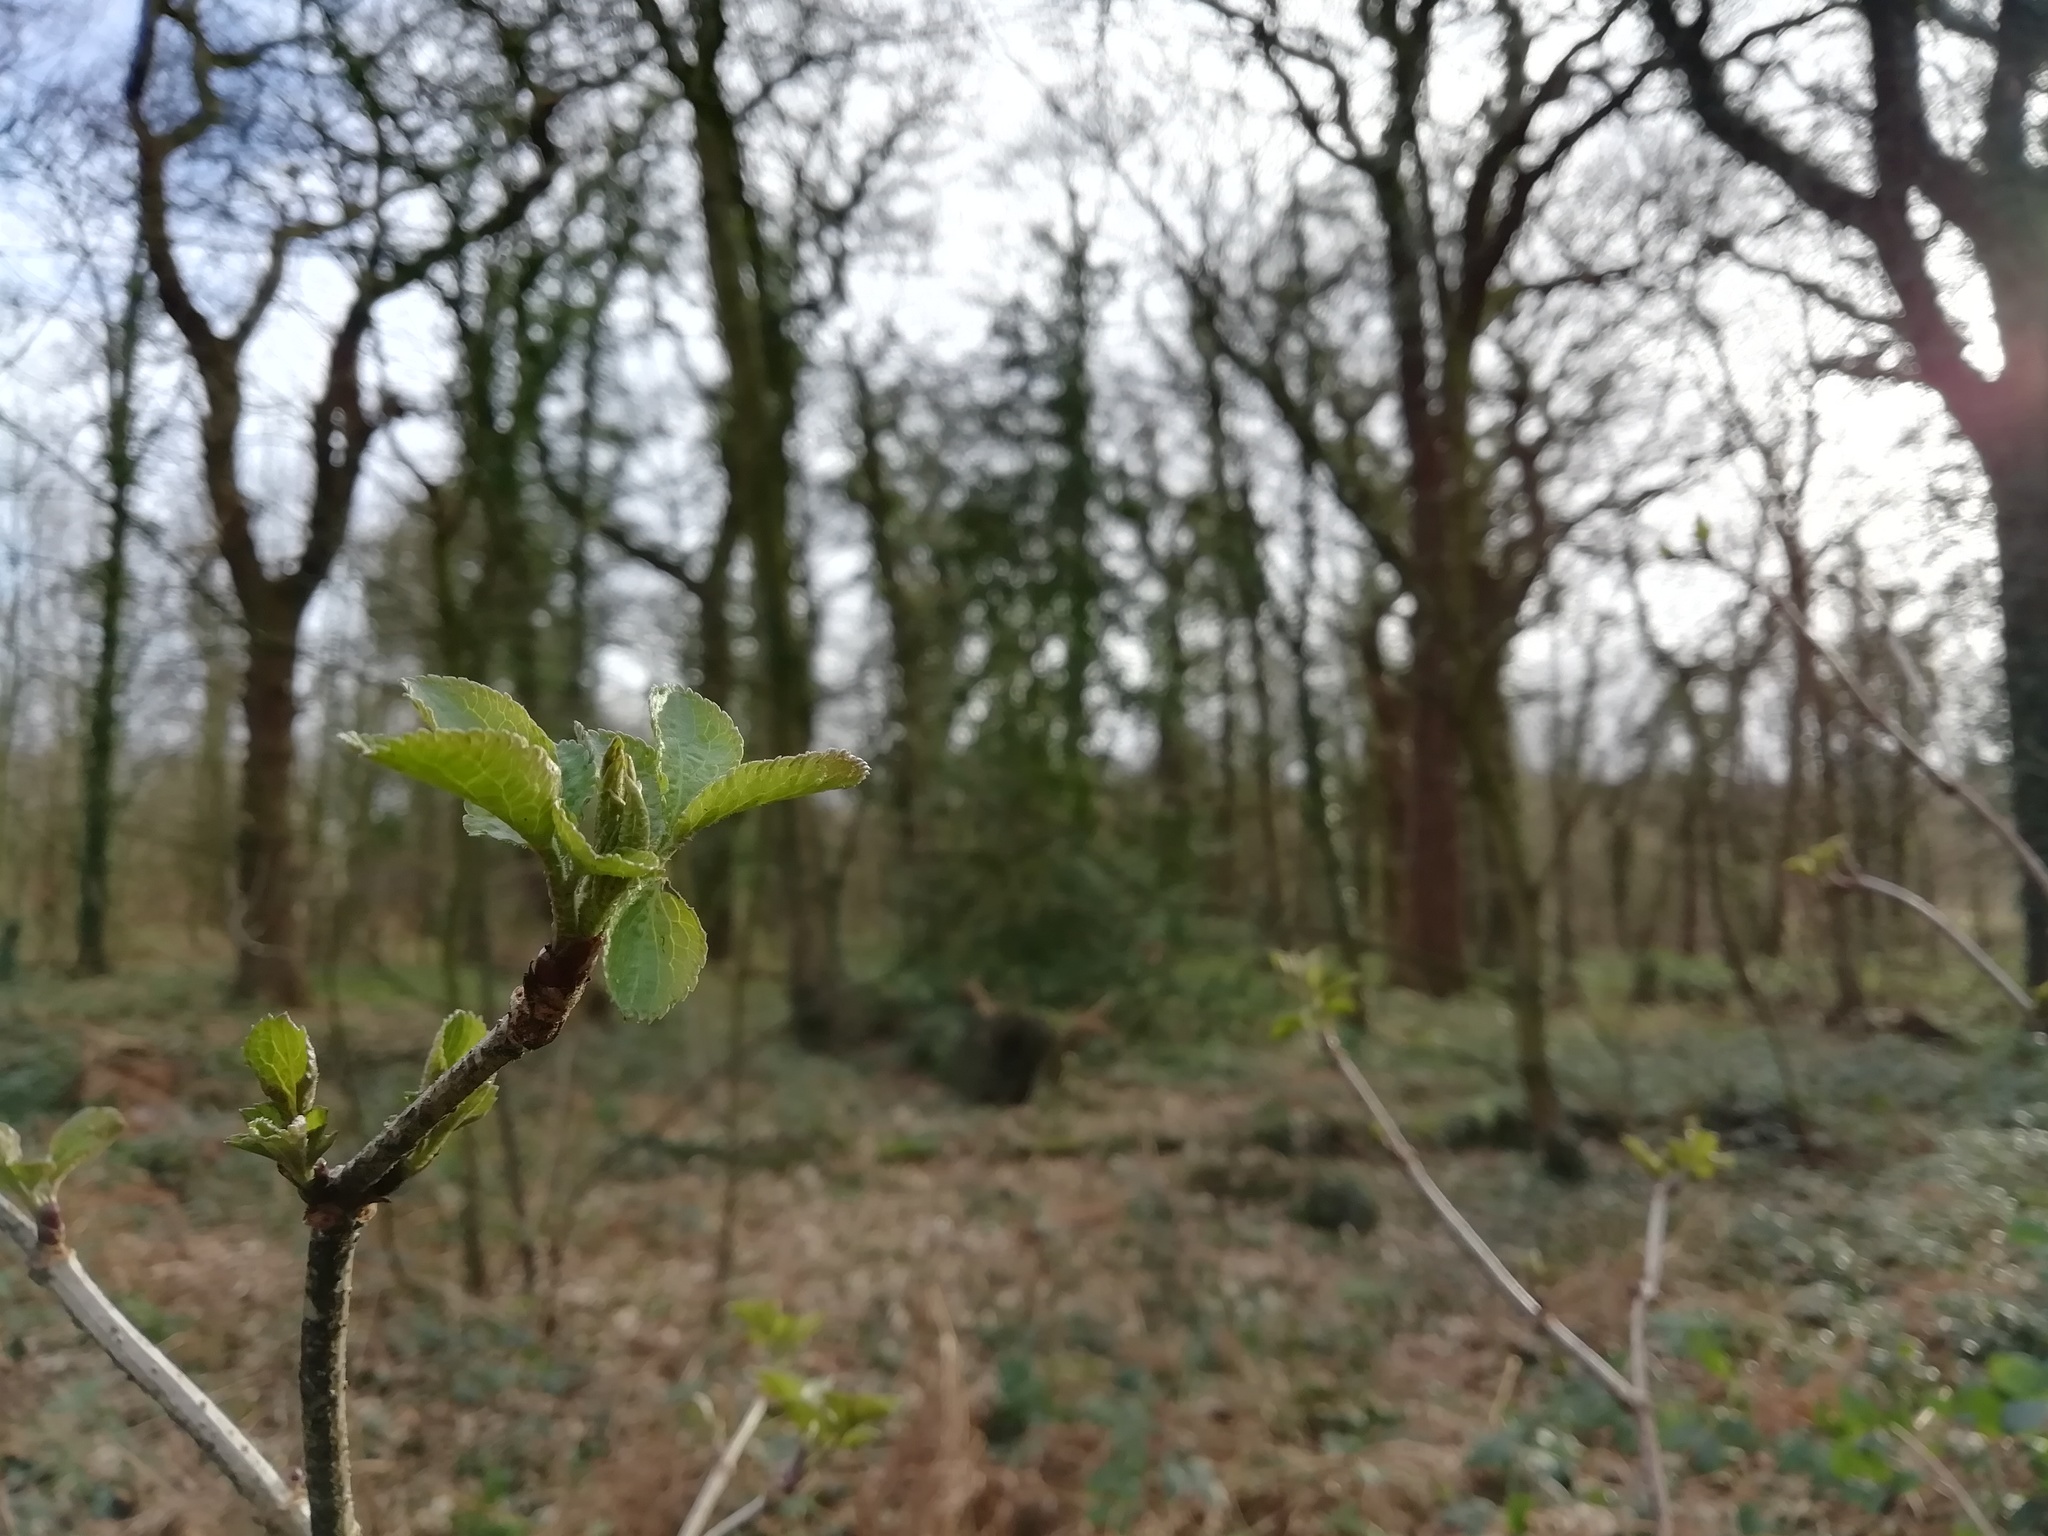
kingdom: Plantae
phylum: Tracheophyta
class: Magnoliopsida
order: Dipsacales
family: Viburnaceae
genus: Sambucus
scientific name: Sambucus nigra
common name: Elder
